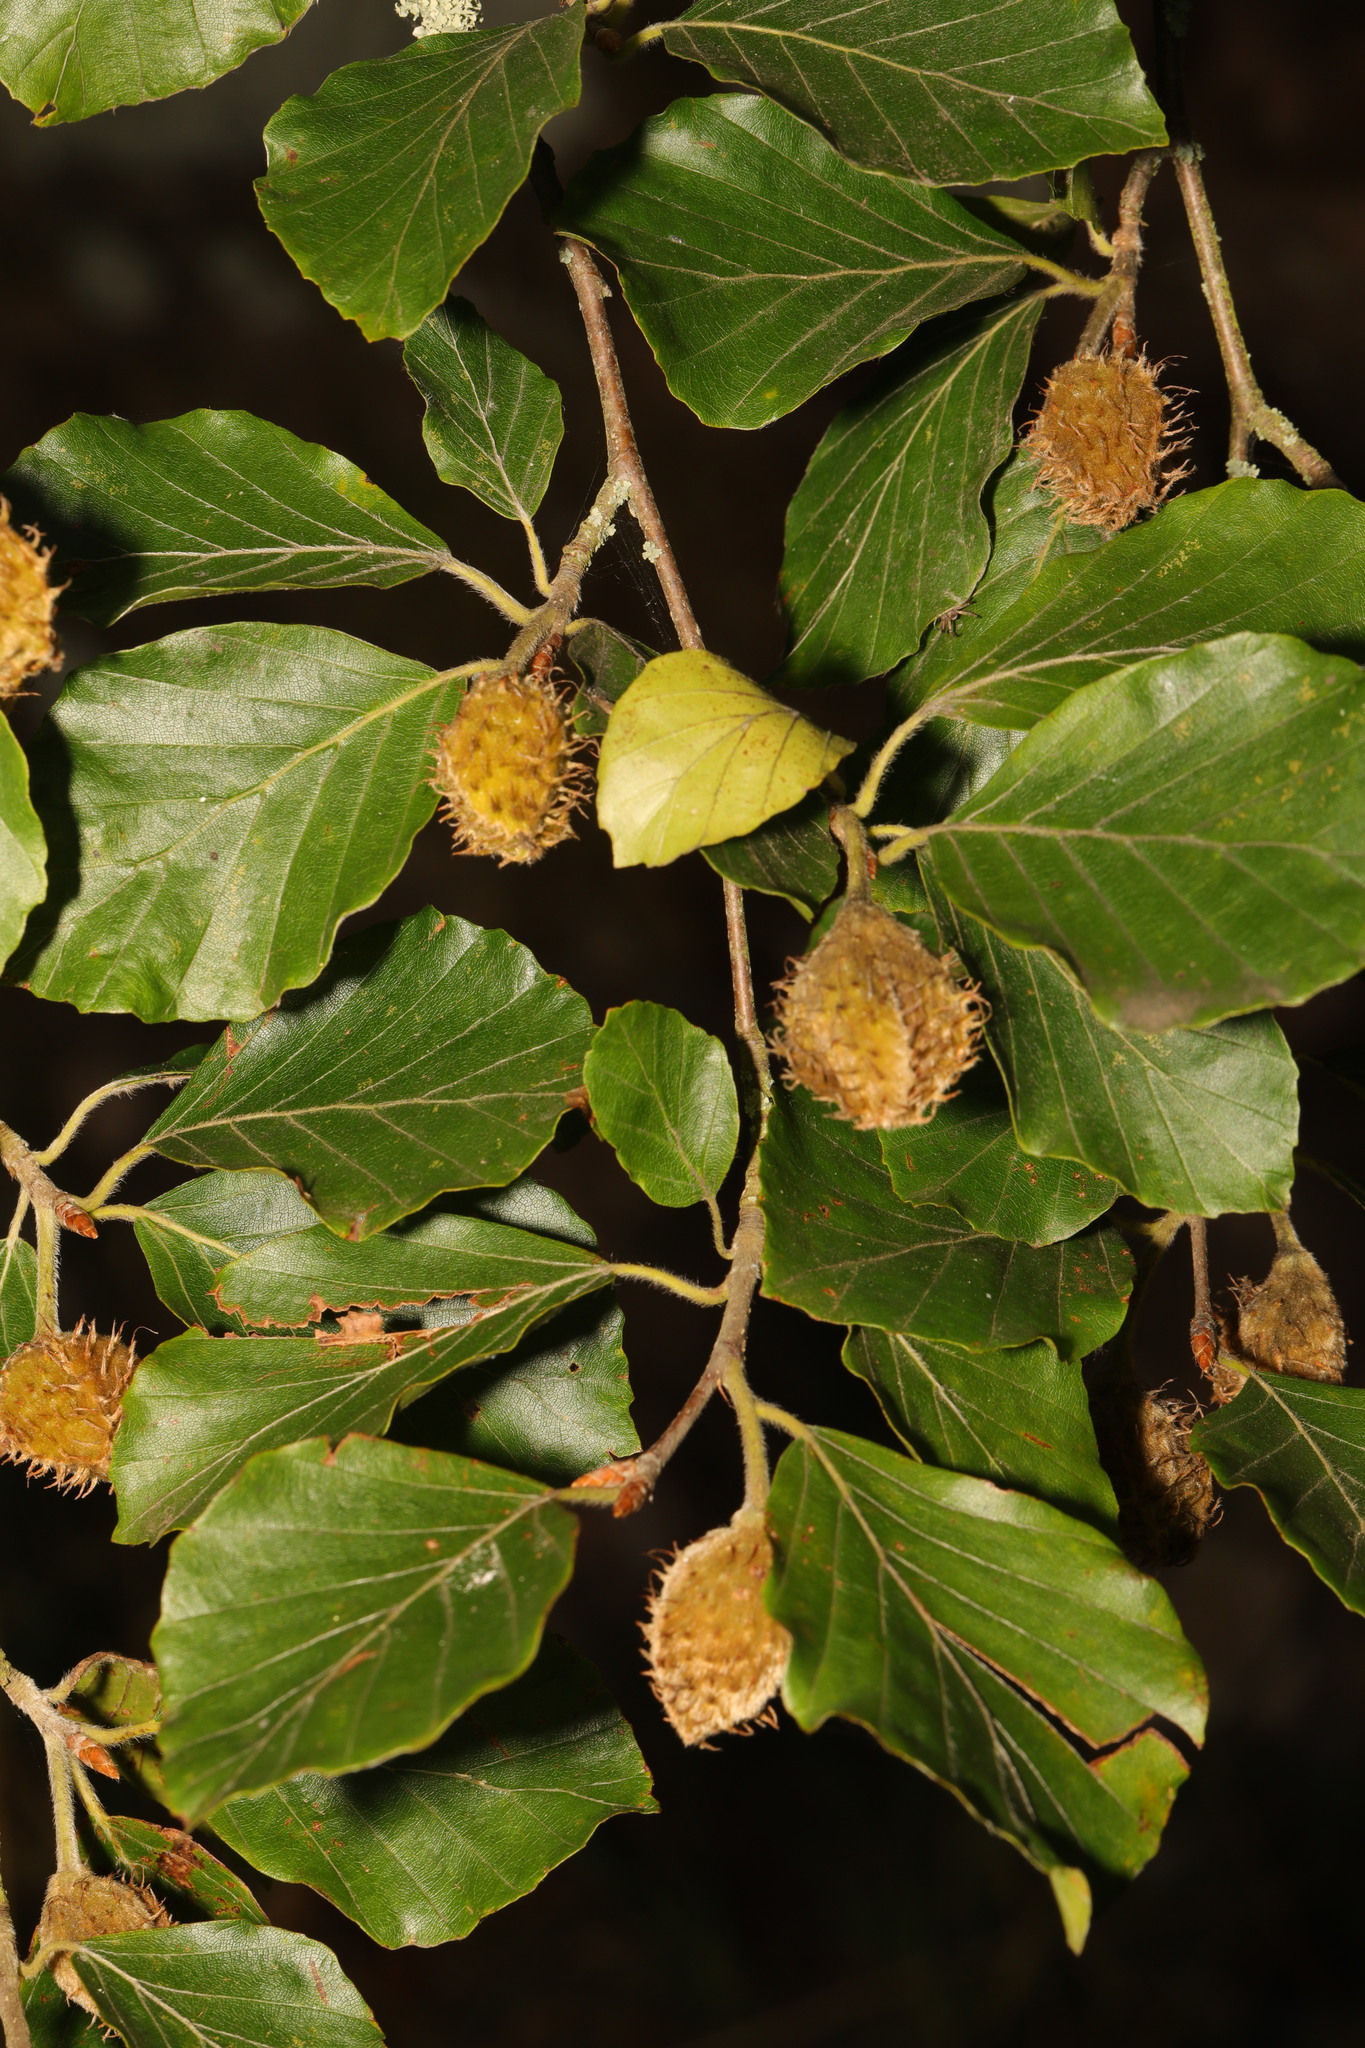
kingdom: Plantae
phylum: Tracheophyta
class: Magnoliopsida
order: Fagales
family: Fagaceae
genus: Fagus
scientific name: Fagus sylvatica
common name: Beech
